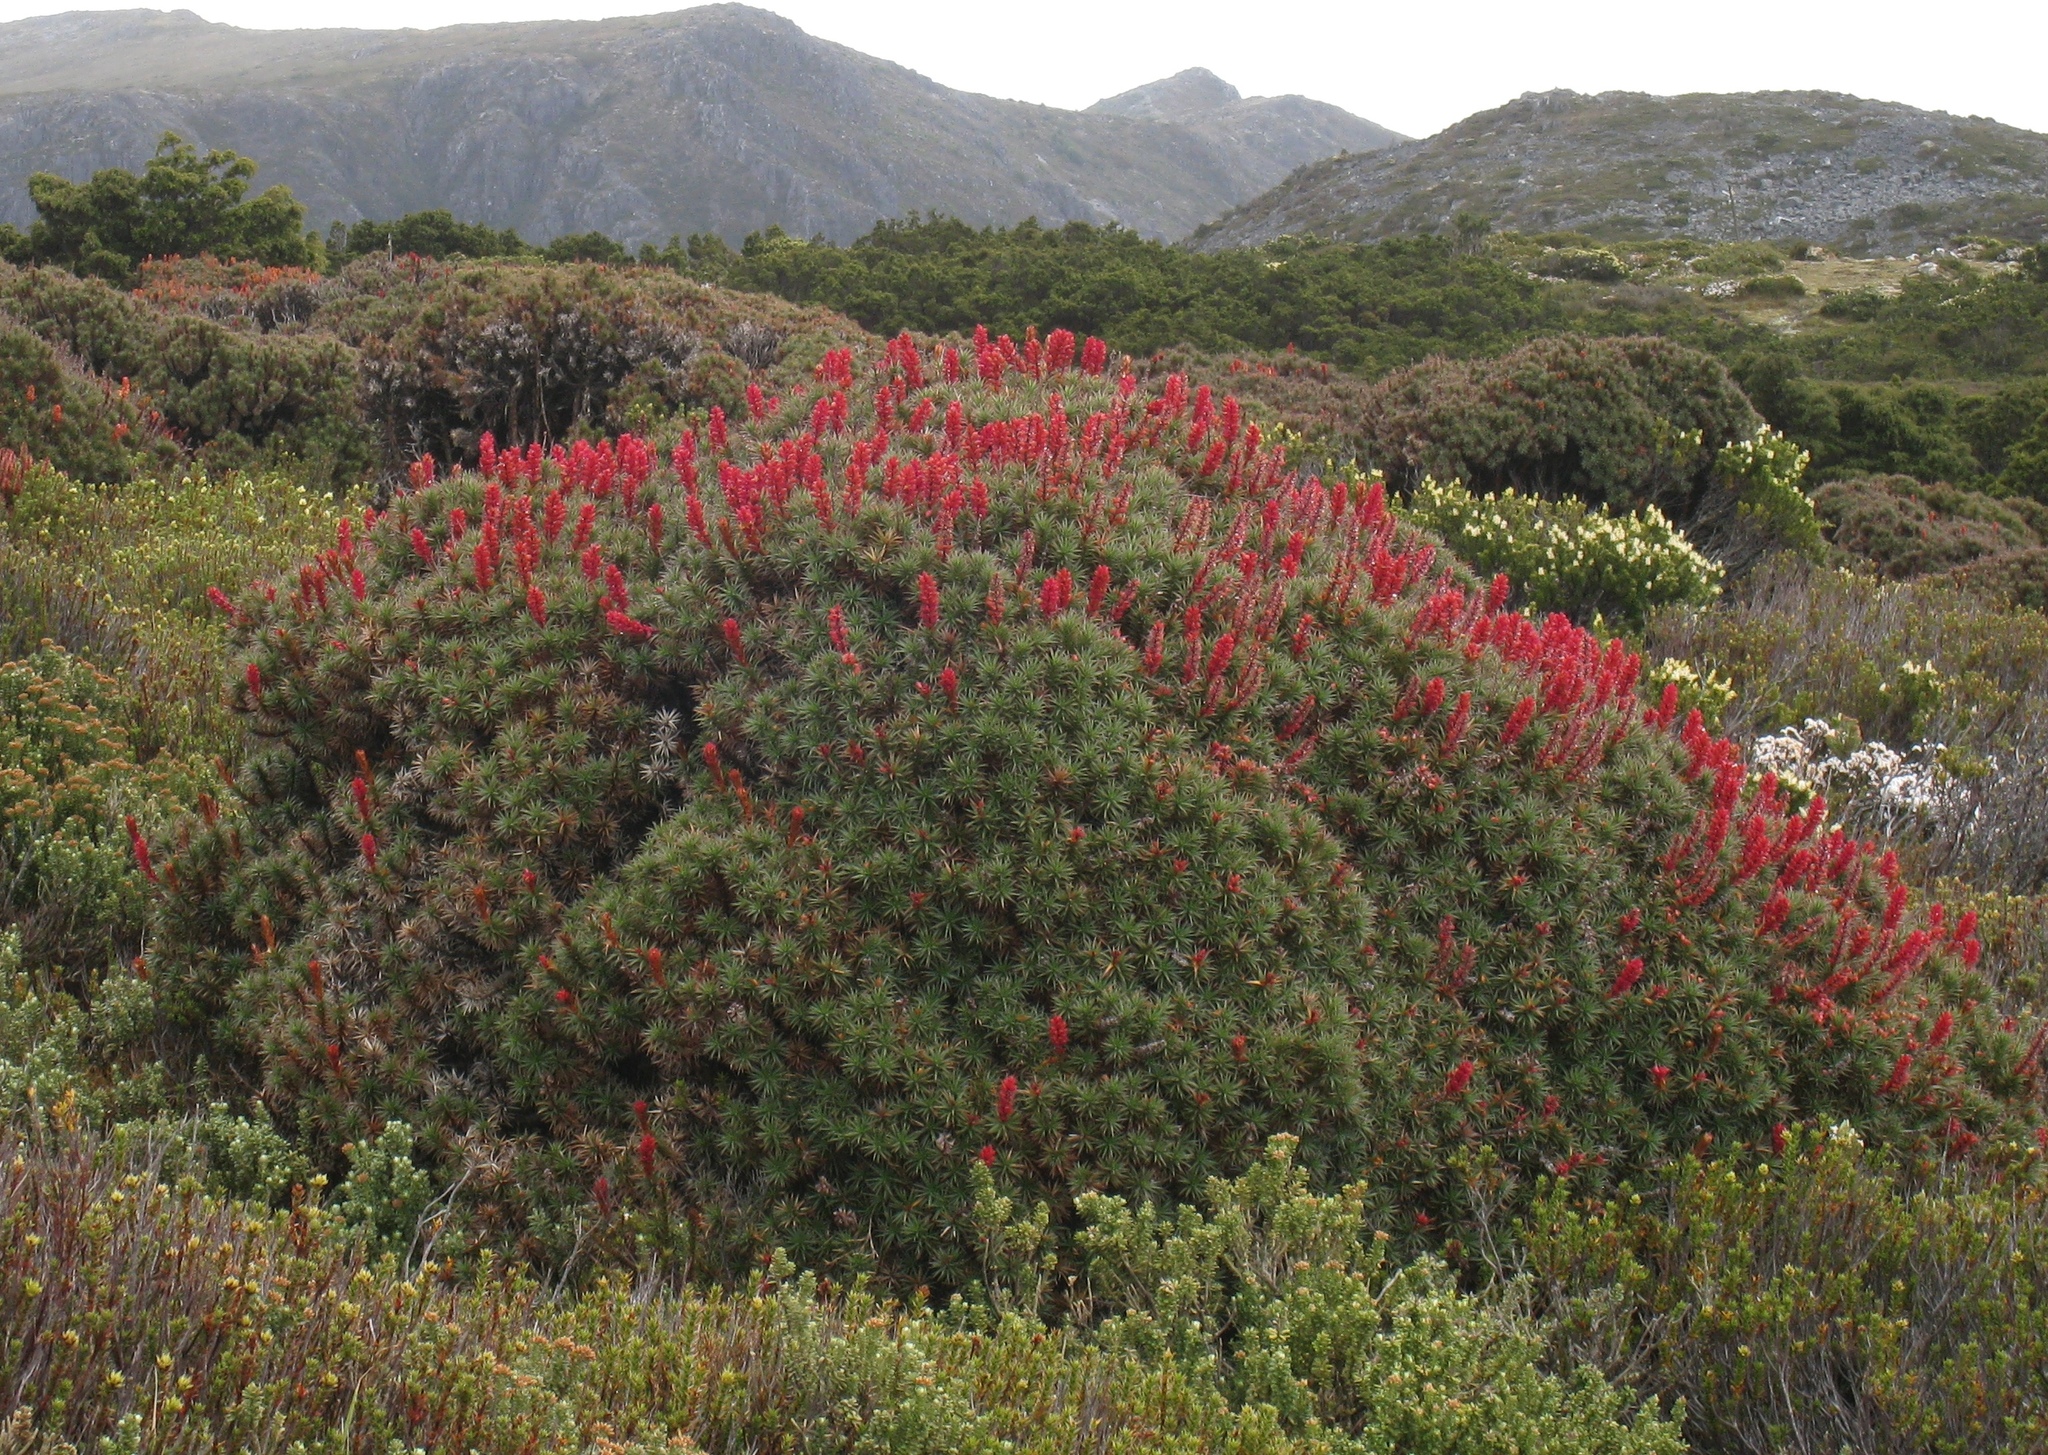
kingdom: Plantae
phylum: Tracheophyta
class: Magnoliopsida
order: Ericales
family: Ericaceae
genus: Dracophyllum
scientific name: Dracophyllum persistentifolium
